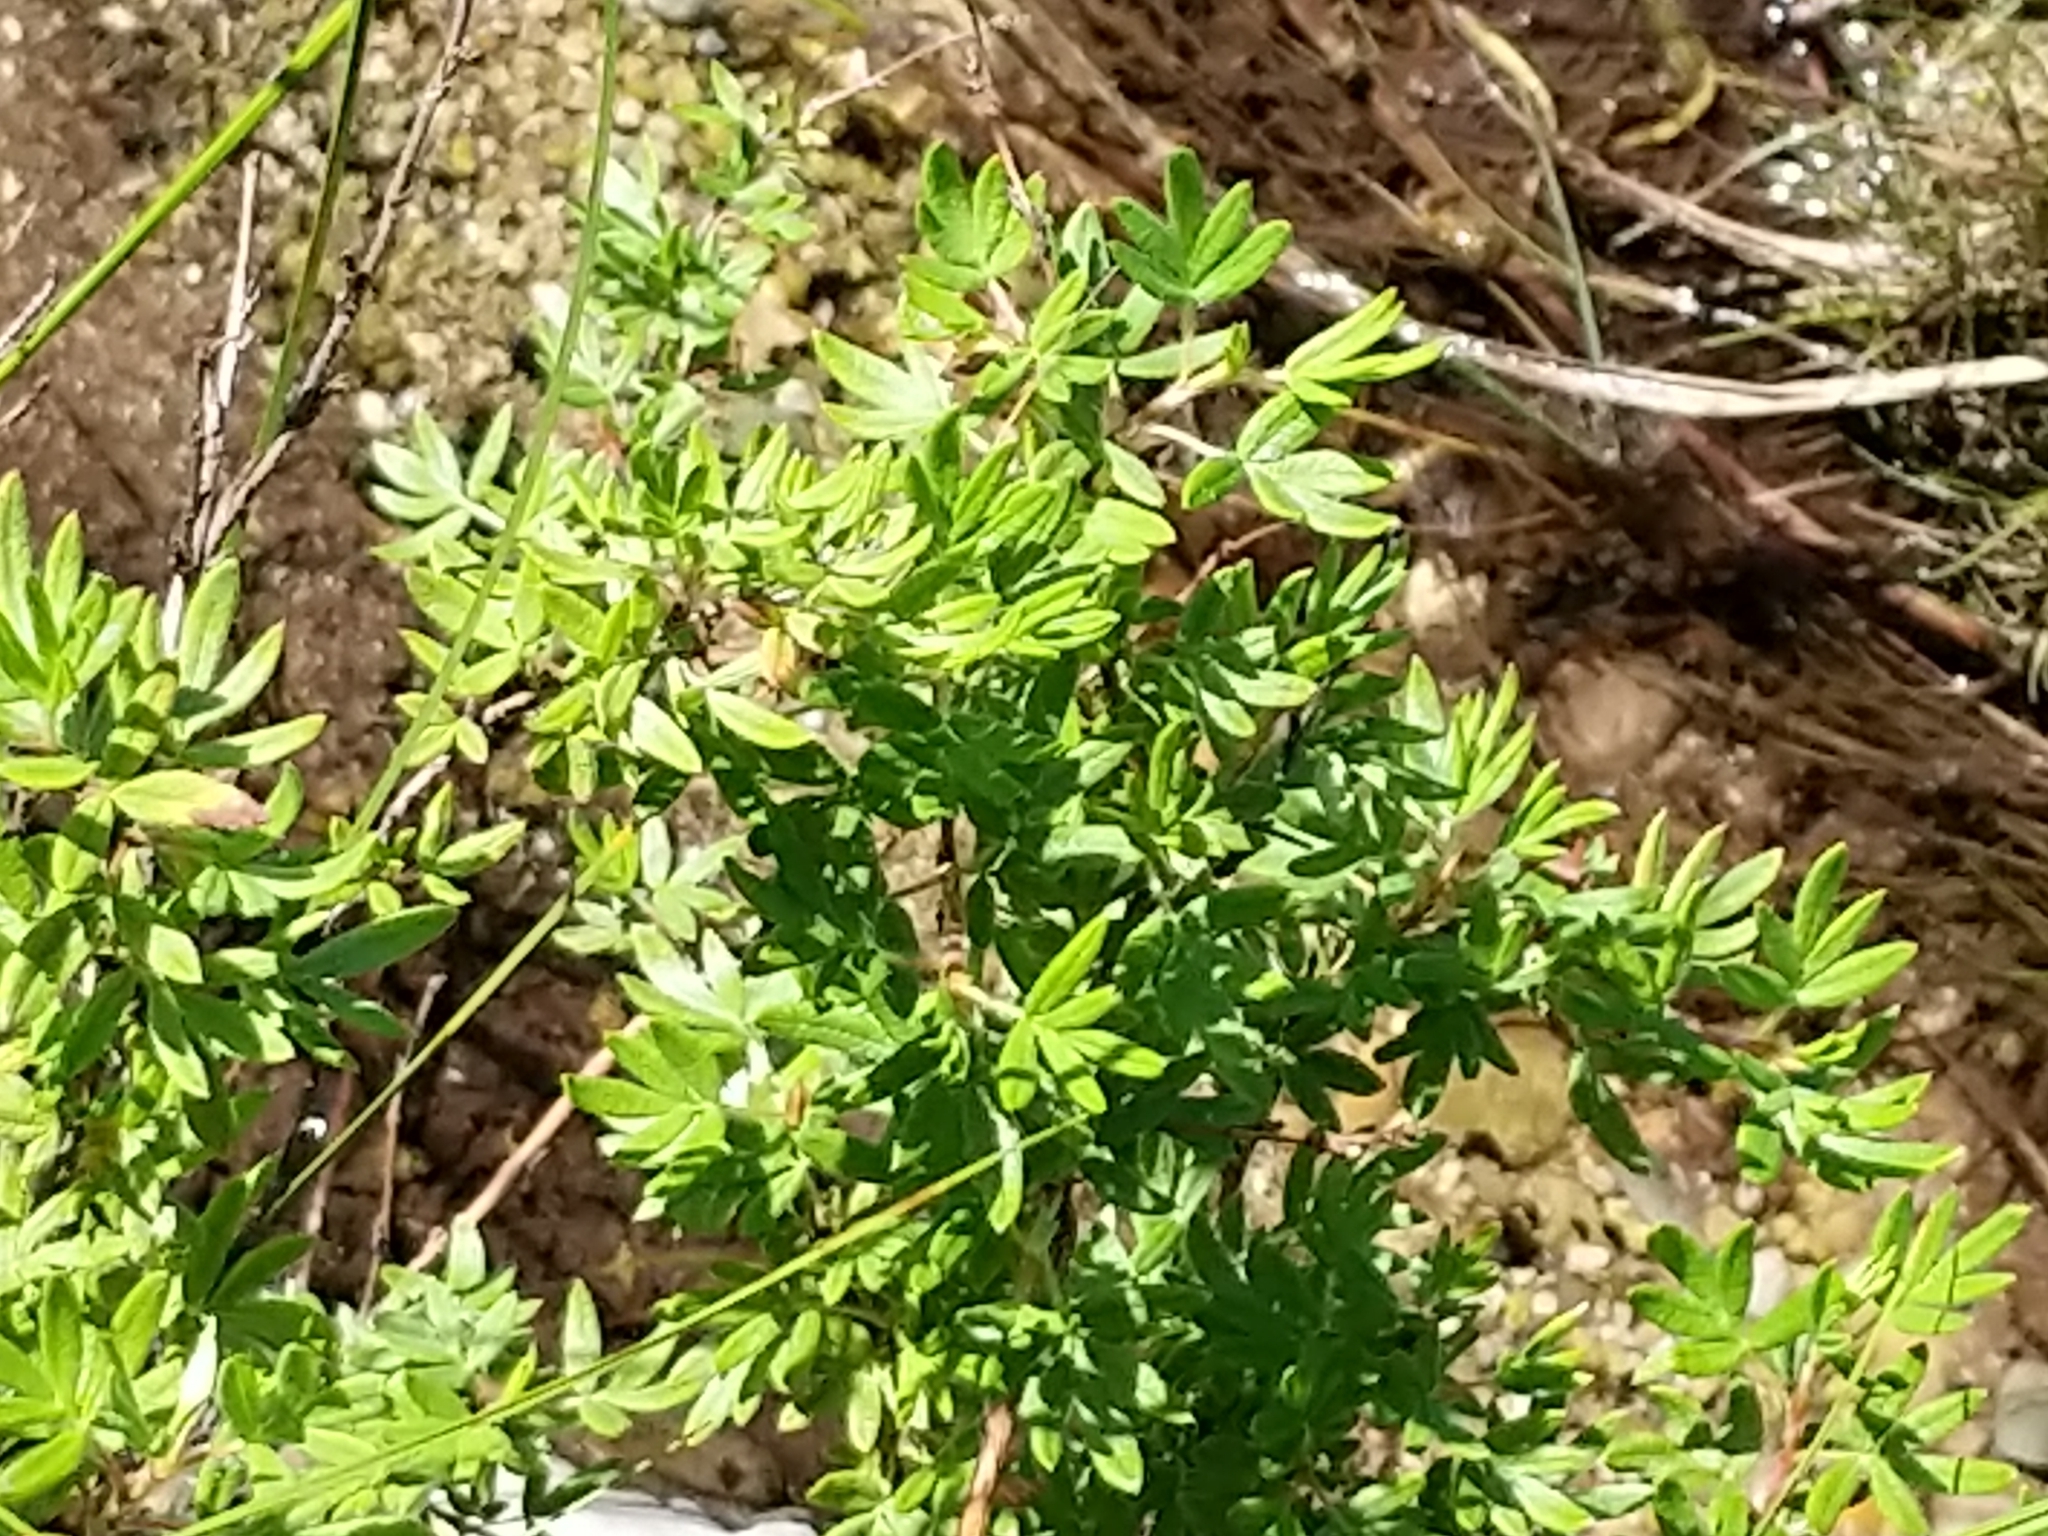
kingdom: Plantae
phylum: Tracheophyta
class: Magnoliopsida
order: Rosales
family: Rosaceae
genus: Dasiphora
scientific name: Dasiphora fruticosa
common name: Shrubby cinquefoil
